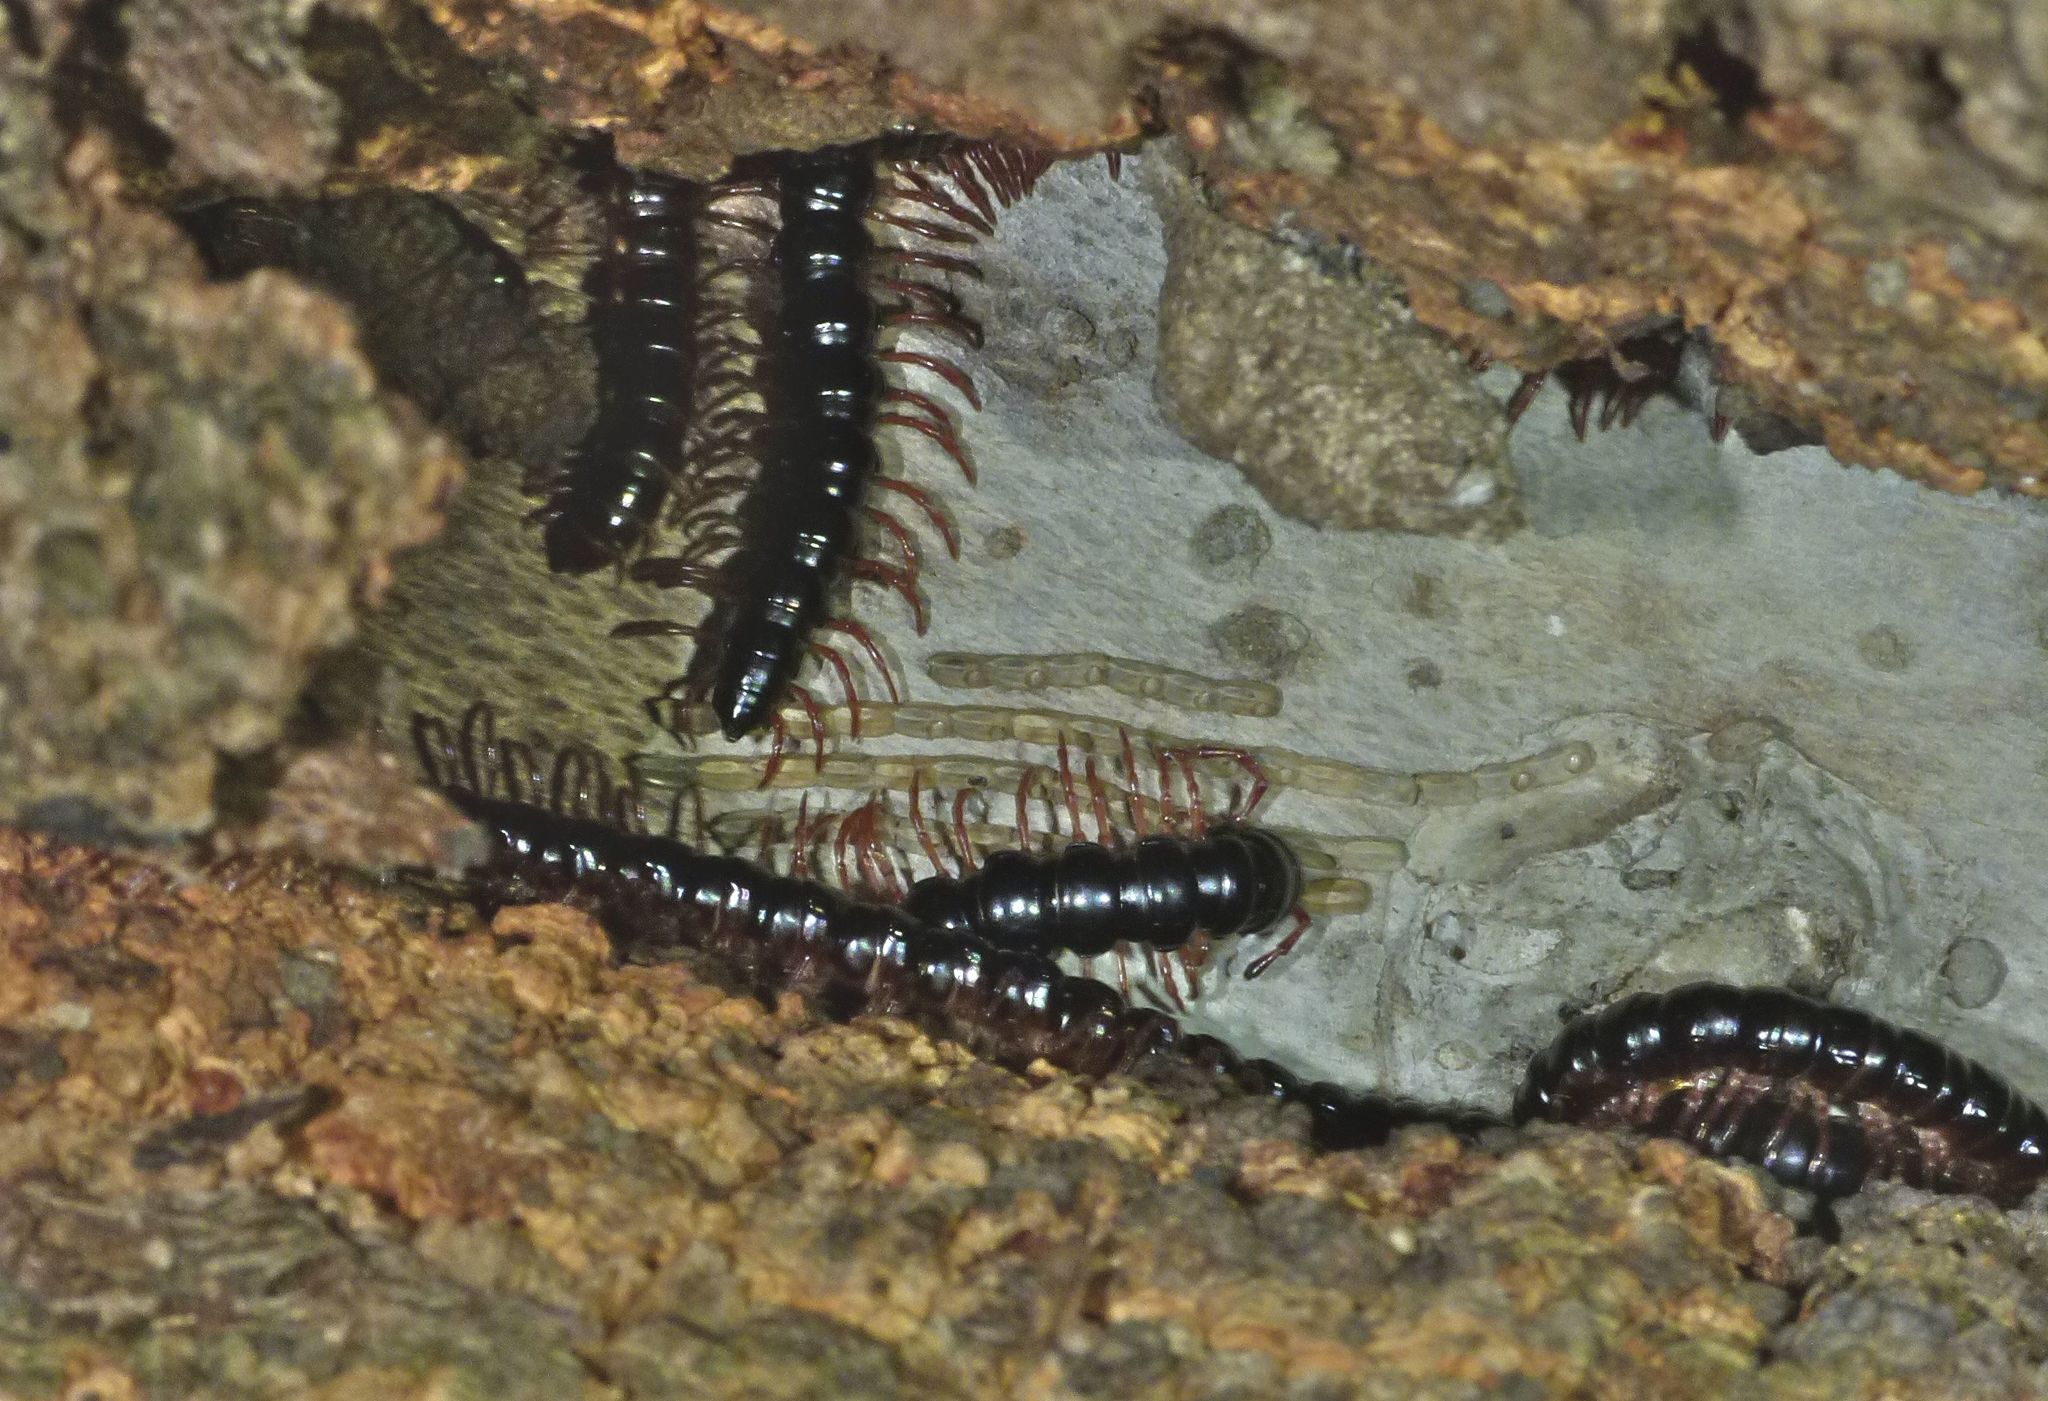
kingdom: Animalia
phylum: Arthropoda
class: Diplopoda
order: Polydesmida
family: Paradoxosomatidae
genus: Heterocladosoma
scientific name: Heterocladosoma
